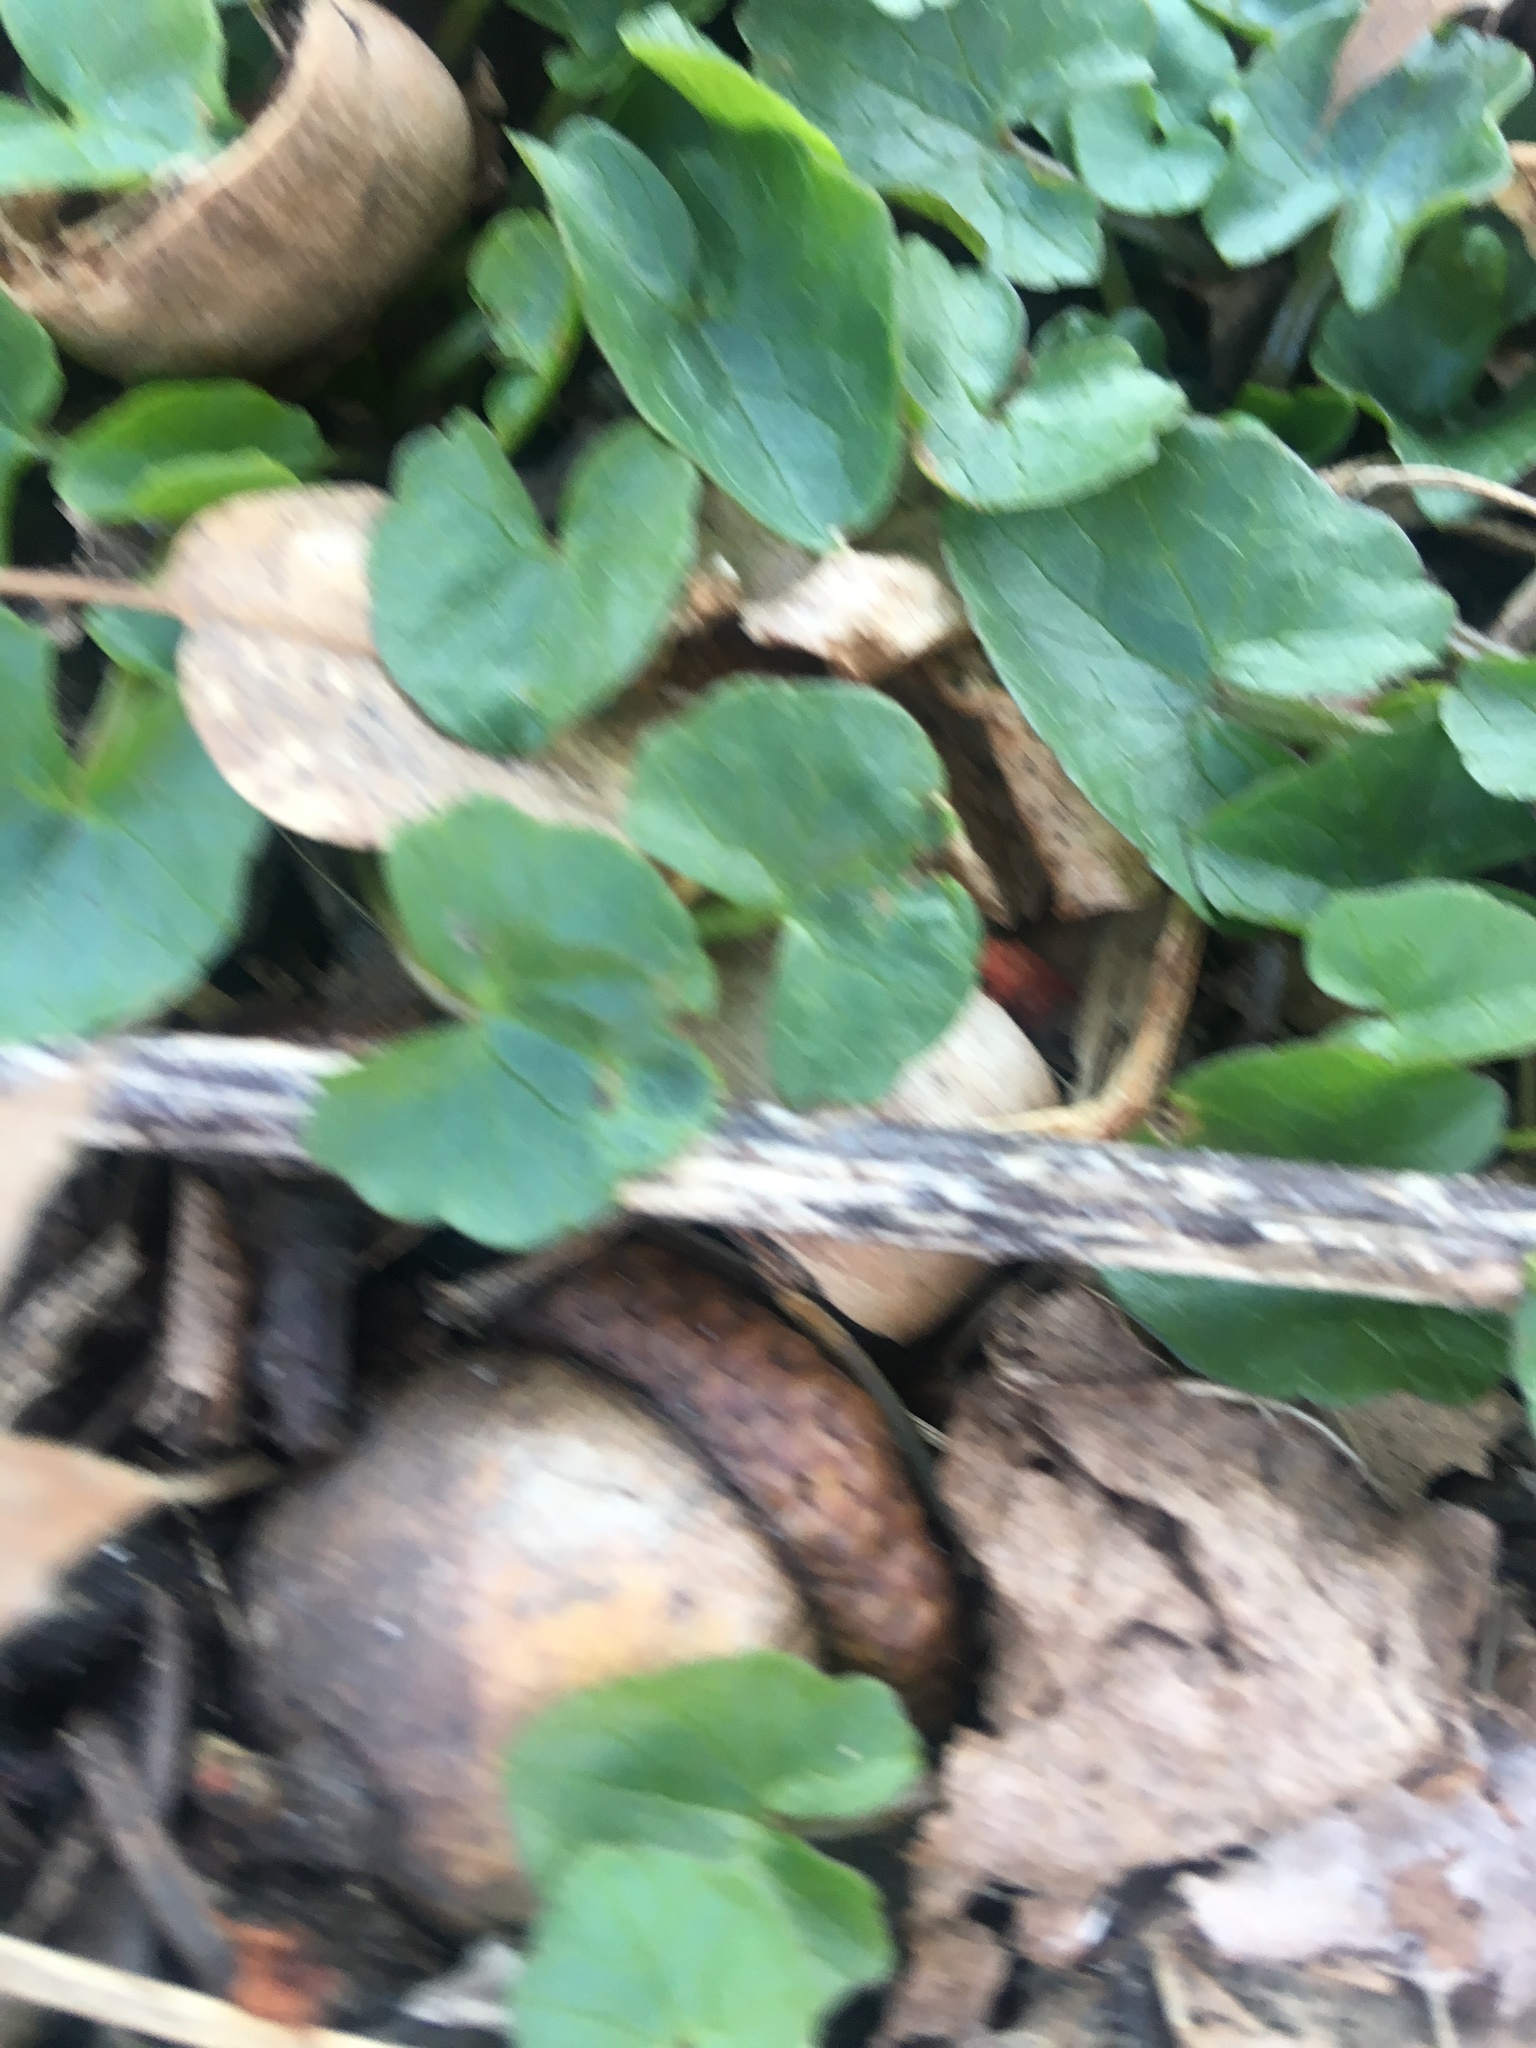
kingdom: Plantae
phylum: Tracheophyta
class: Magnoliopsida
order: Ranunculales
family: Ranunculaceae
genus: Ficaria
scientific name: Ficaria verna
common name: Lesser celandine
